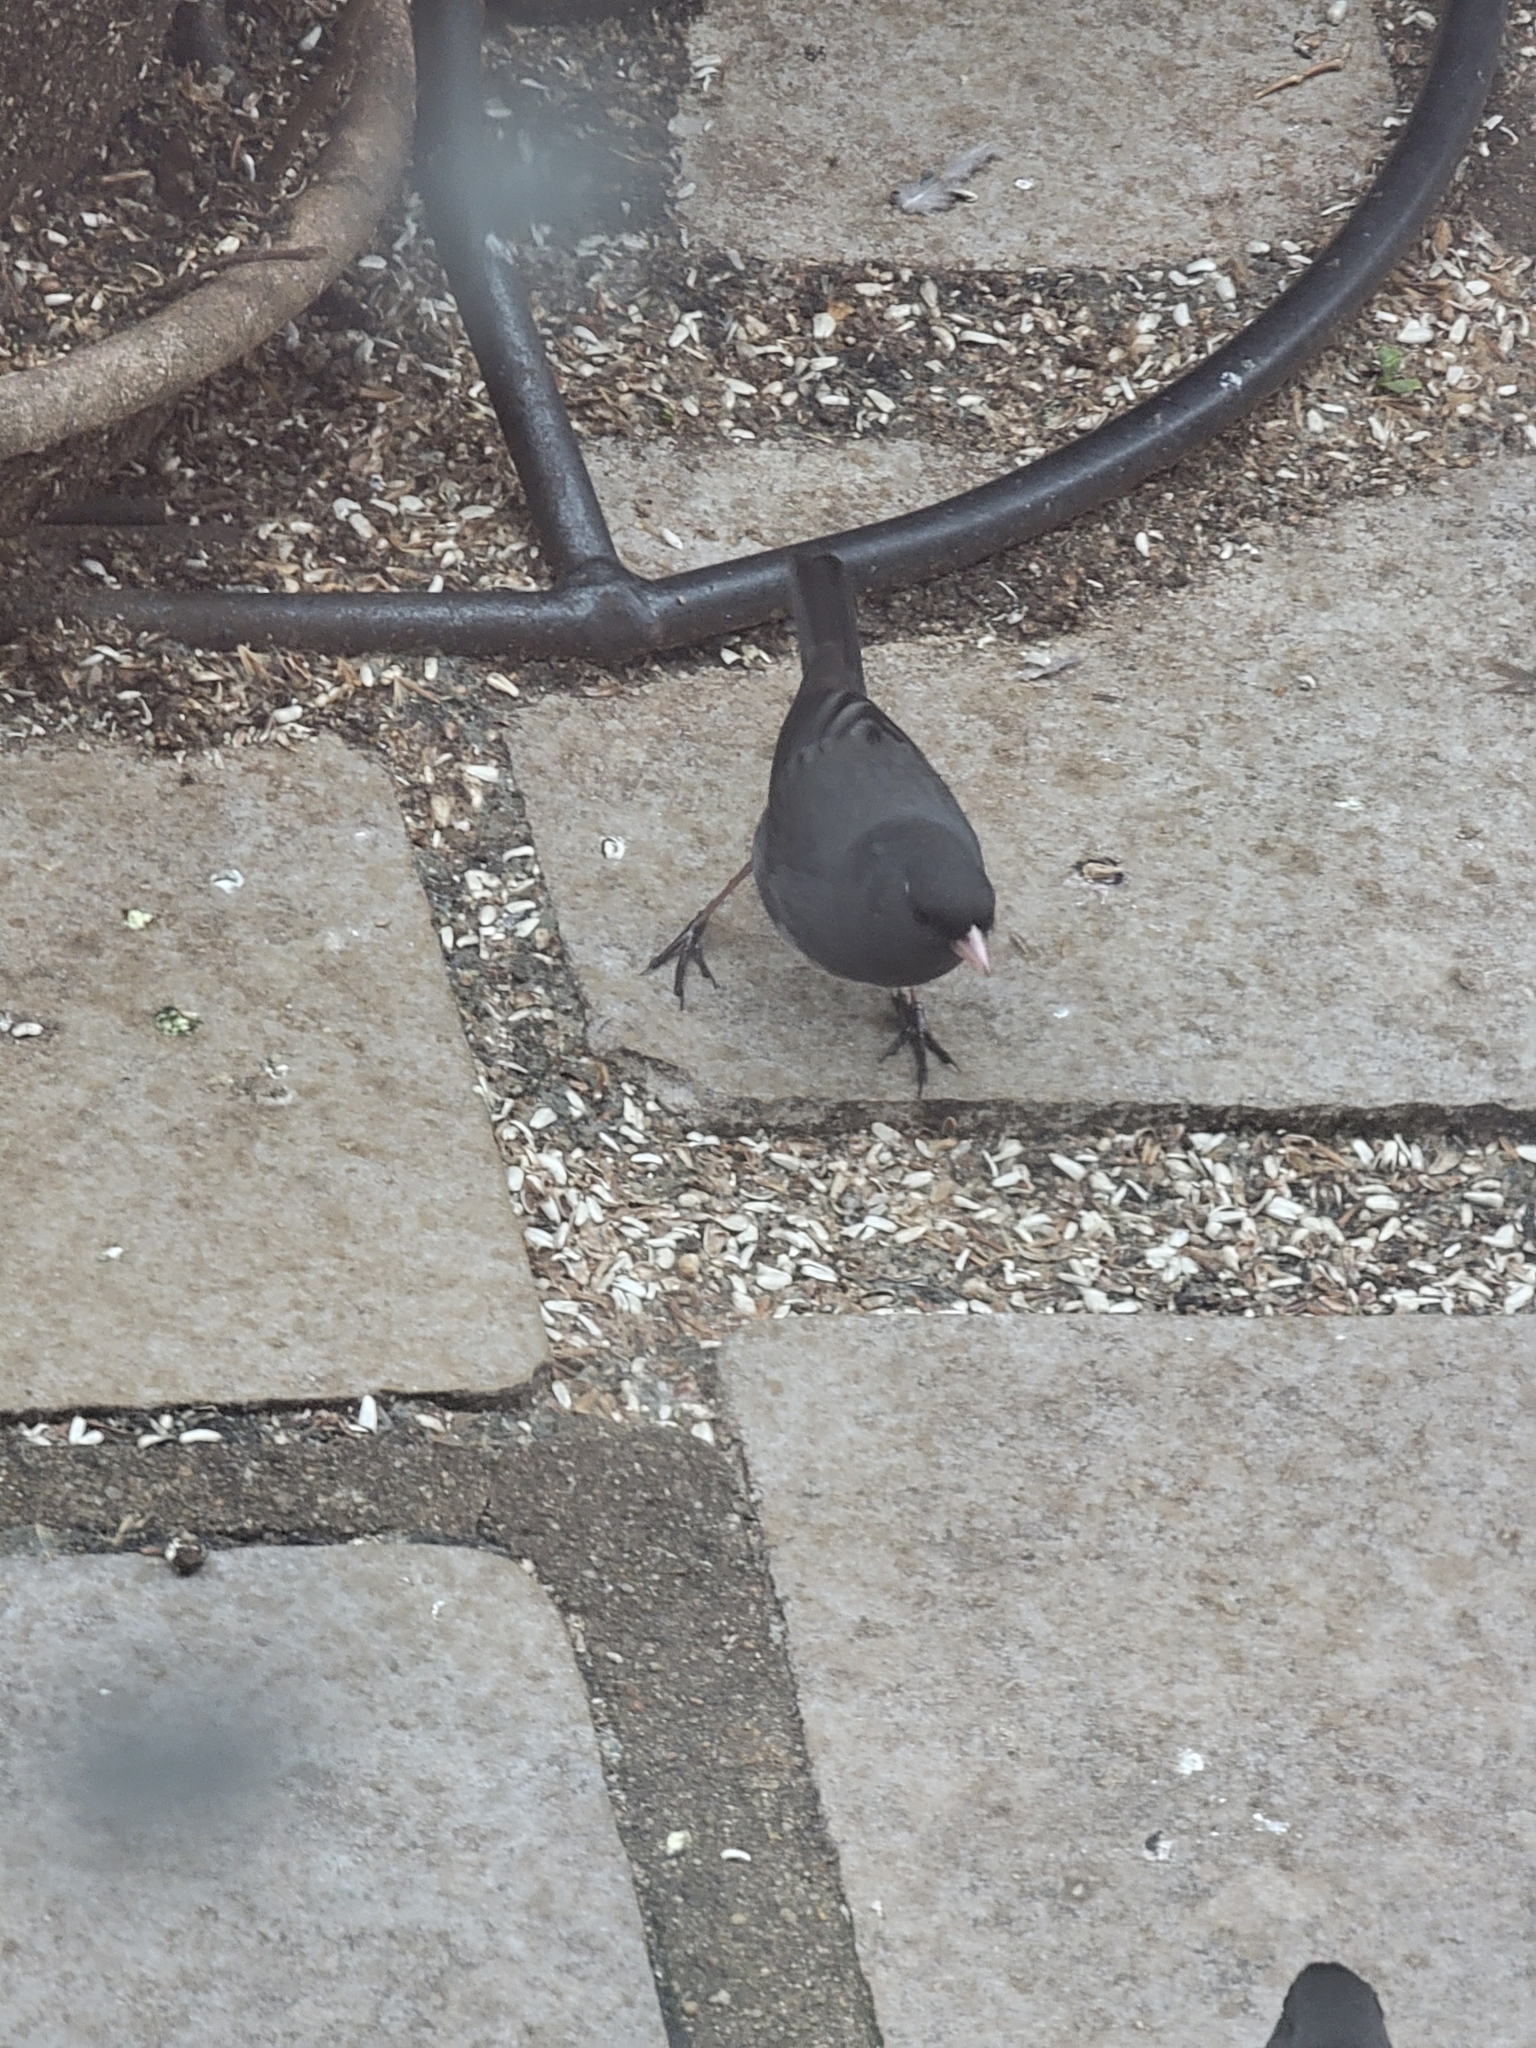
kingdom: Animalia
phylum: Chordata
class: Aves
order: Passeriformes
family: Passerellidae
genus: Junco
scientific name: Junco hyemalis
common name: Dark-eyed junco
